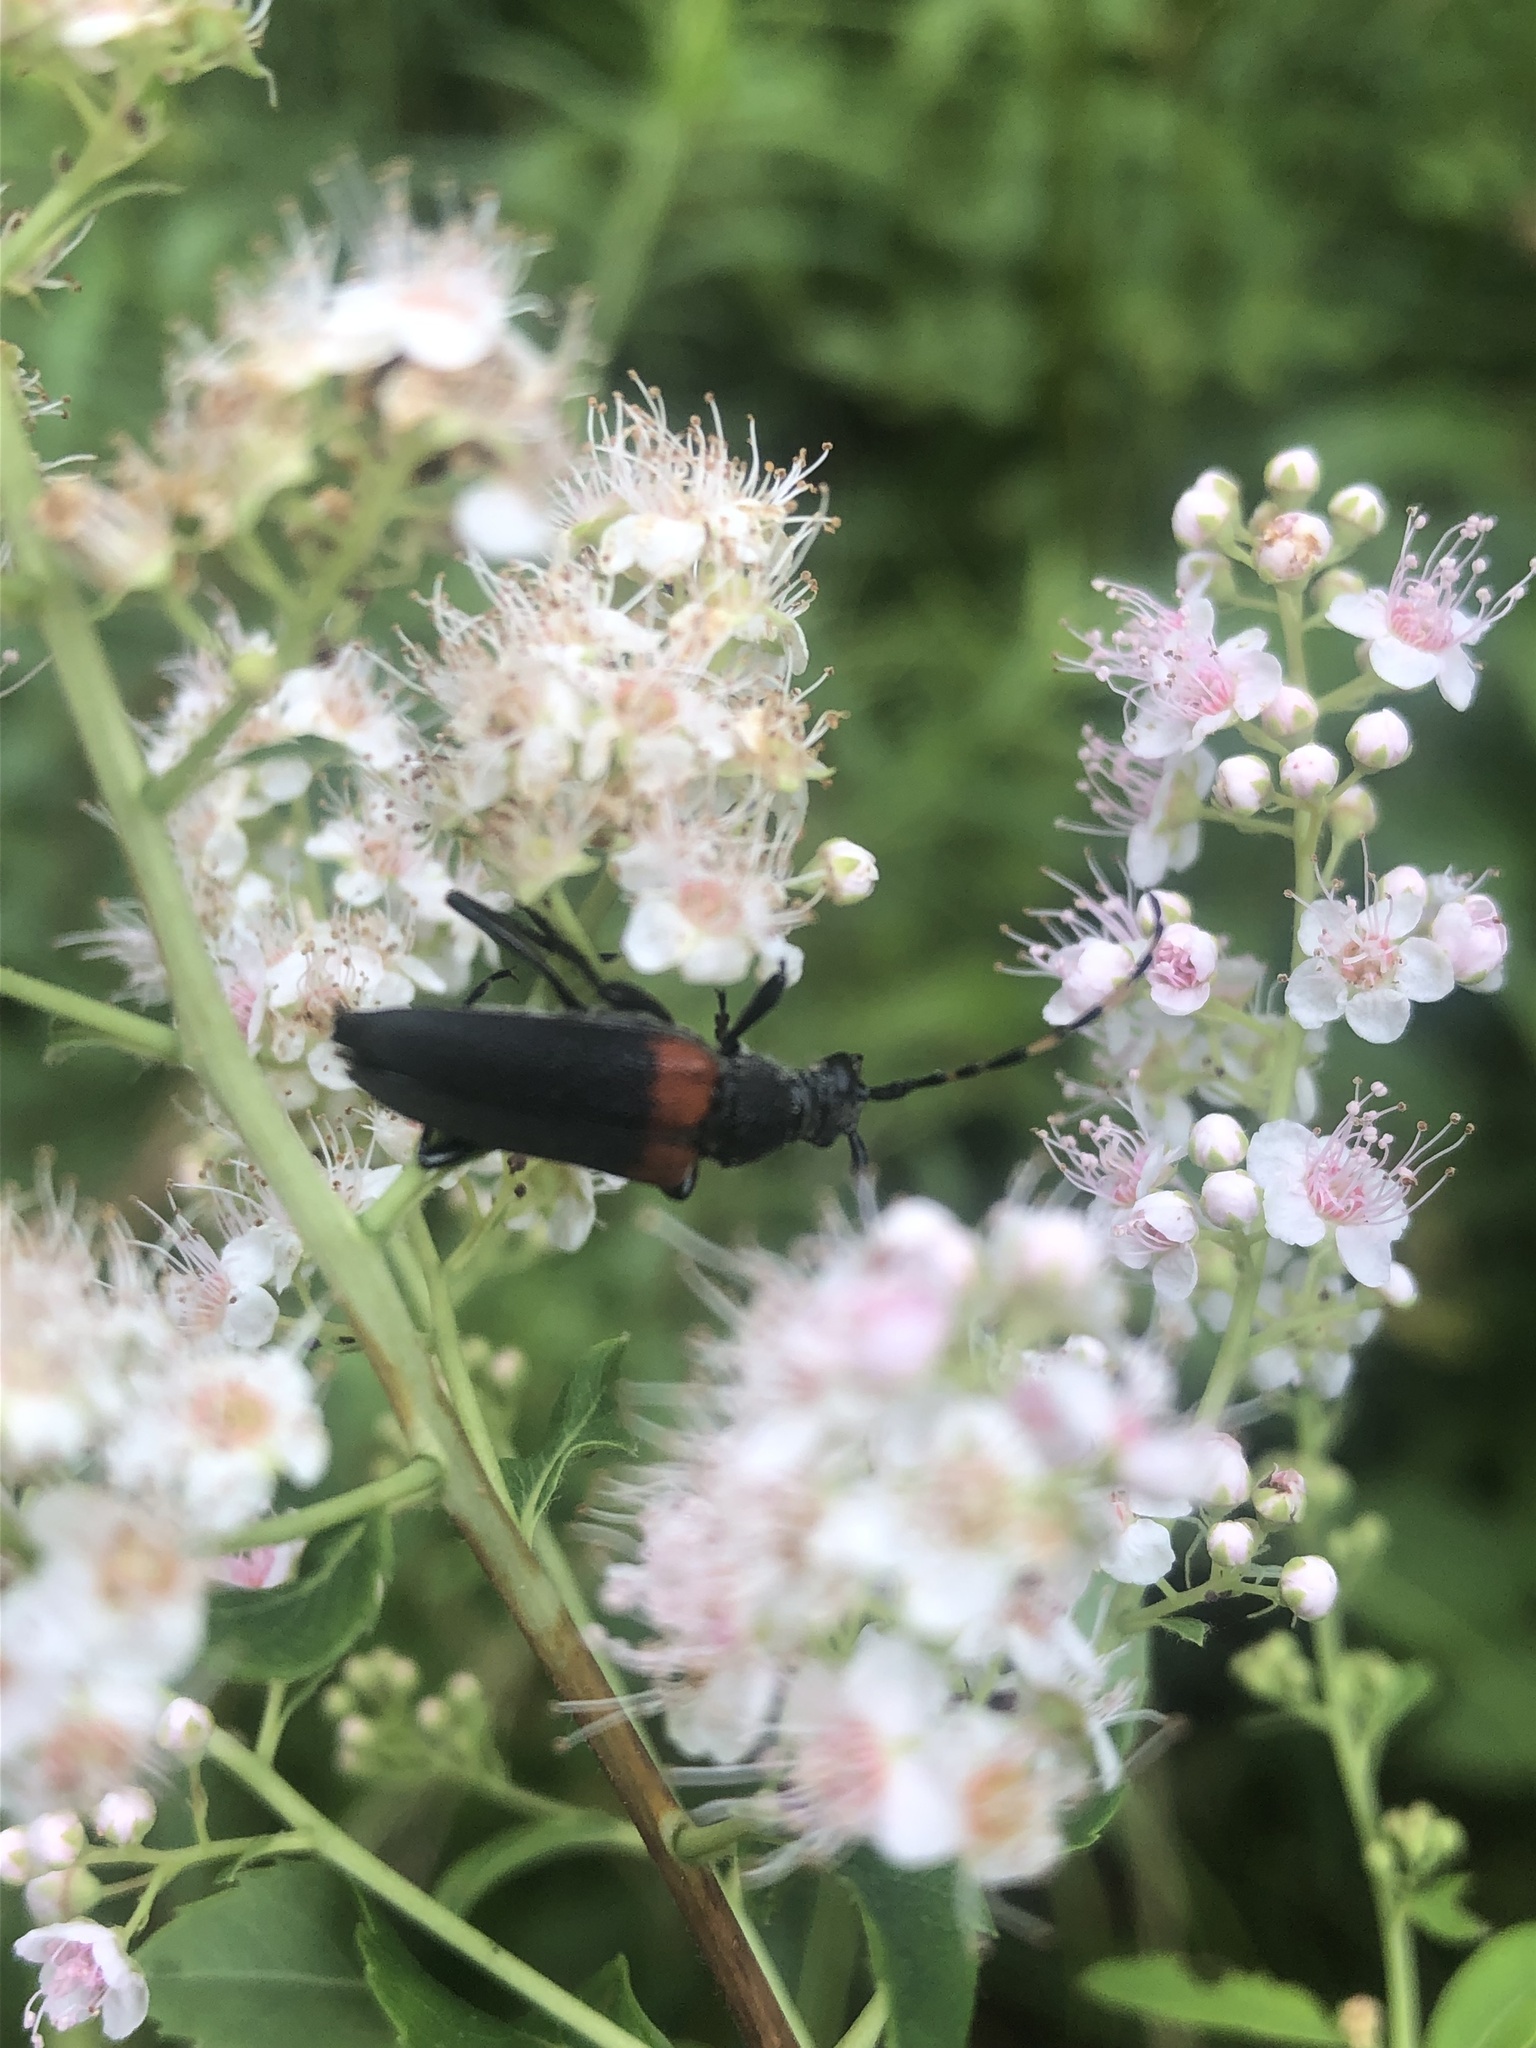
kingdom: Animalia
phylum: Arthropoda
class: Insecta
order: Coleoptera
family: Cerambycidae
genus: Stictoleptura
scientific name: Stictoleptura canadensis
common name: Red-shouldered pine borer
